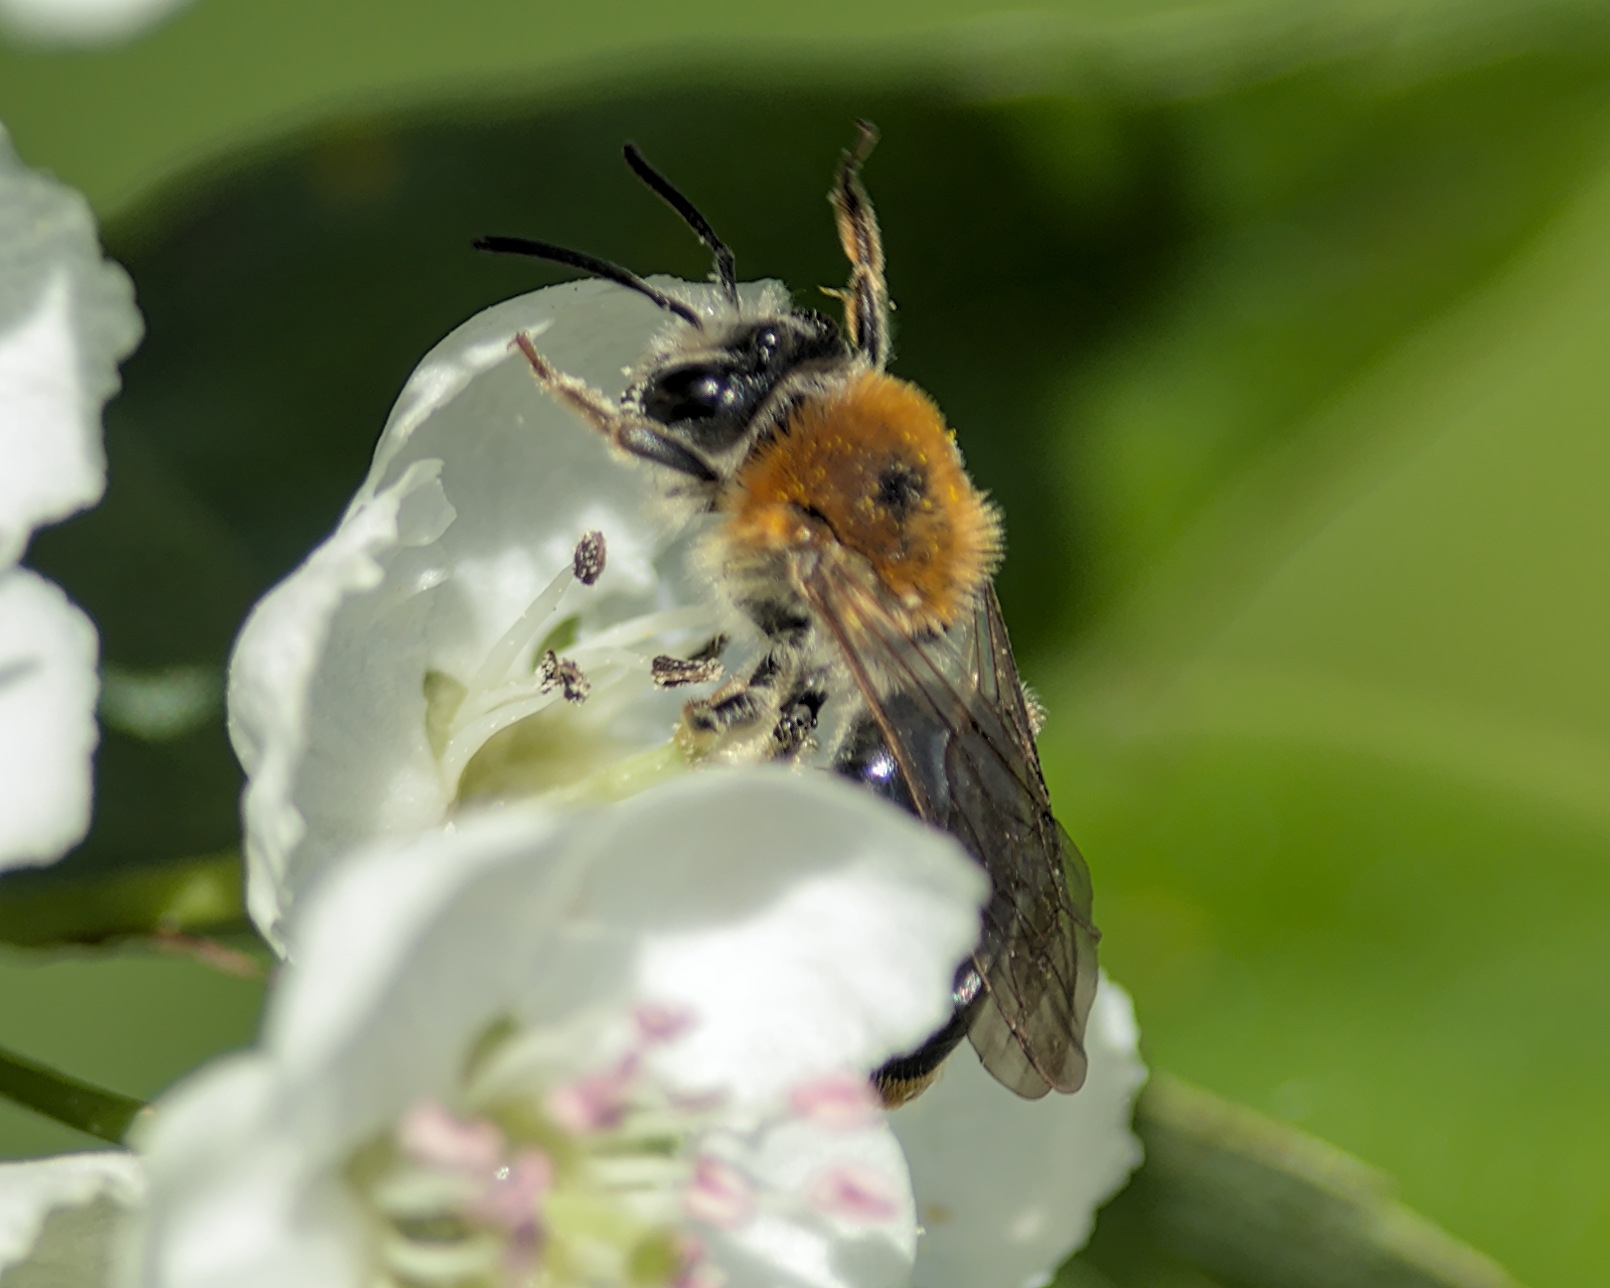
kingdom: Animalia
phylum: Arthropoda
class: Insecta
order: Hymenoptera
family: Andrenidae
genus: Andrena
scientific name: Andrena haemorrhoa
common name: Early mining bee
